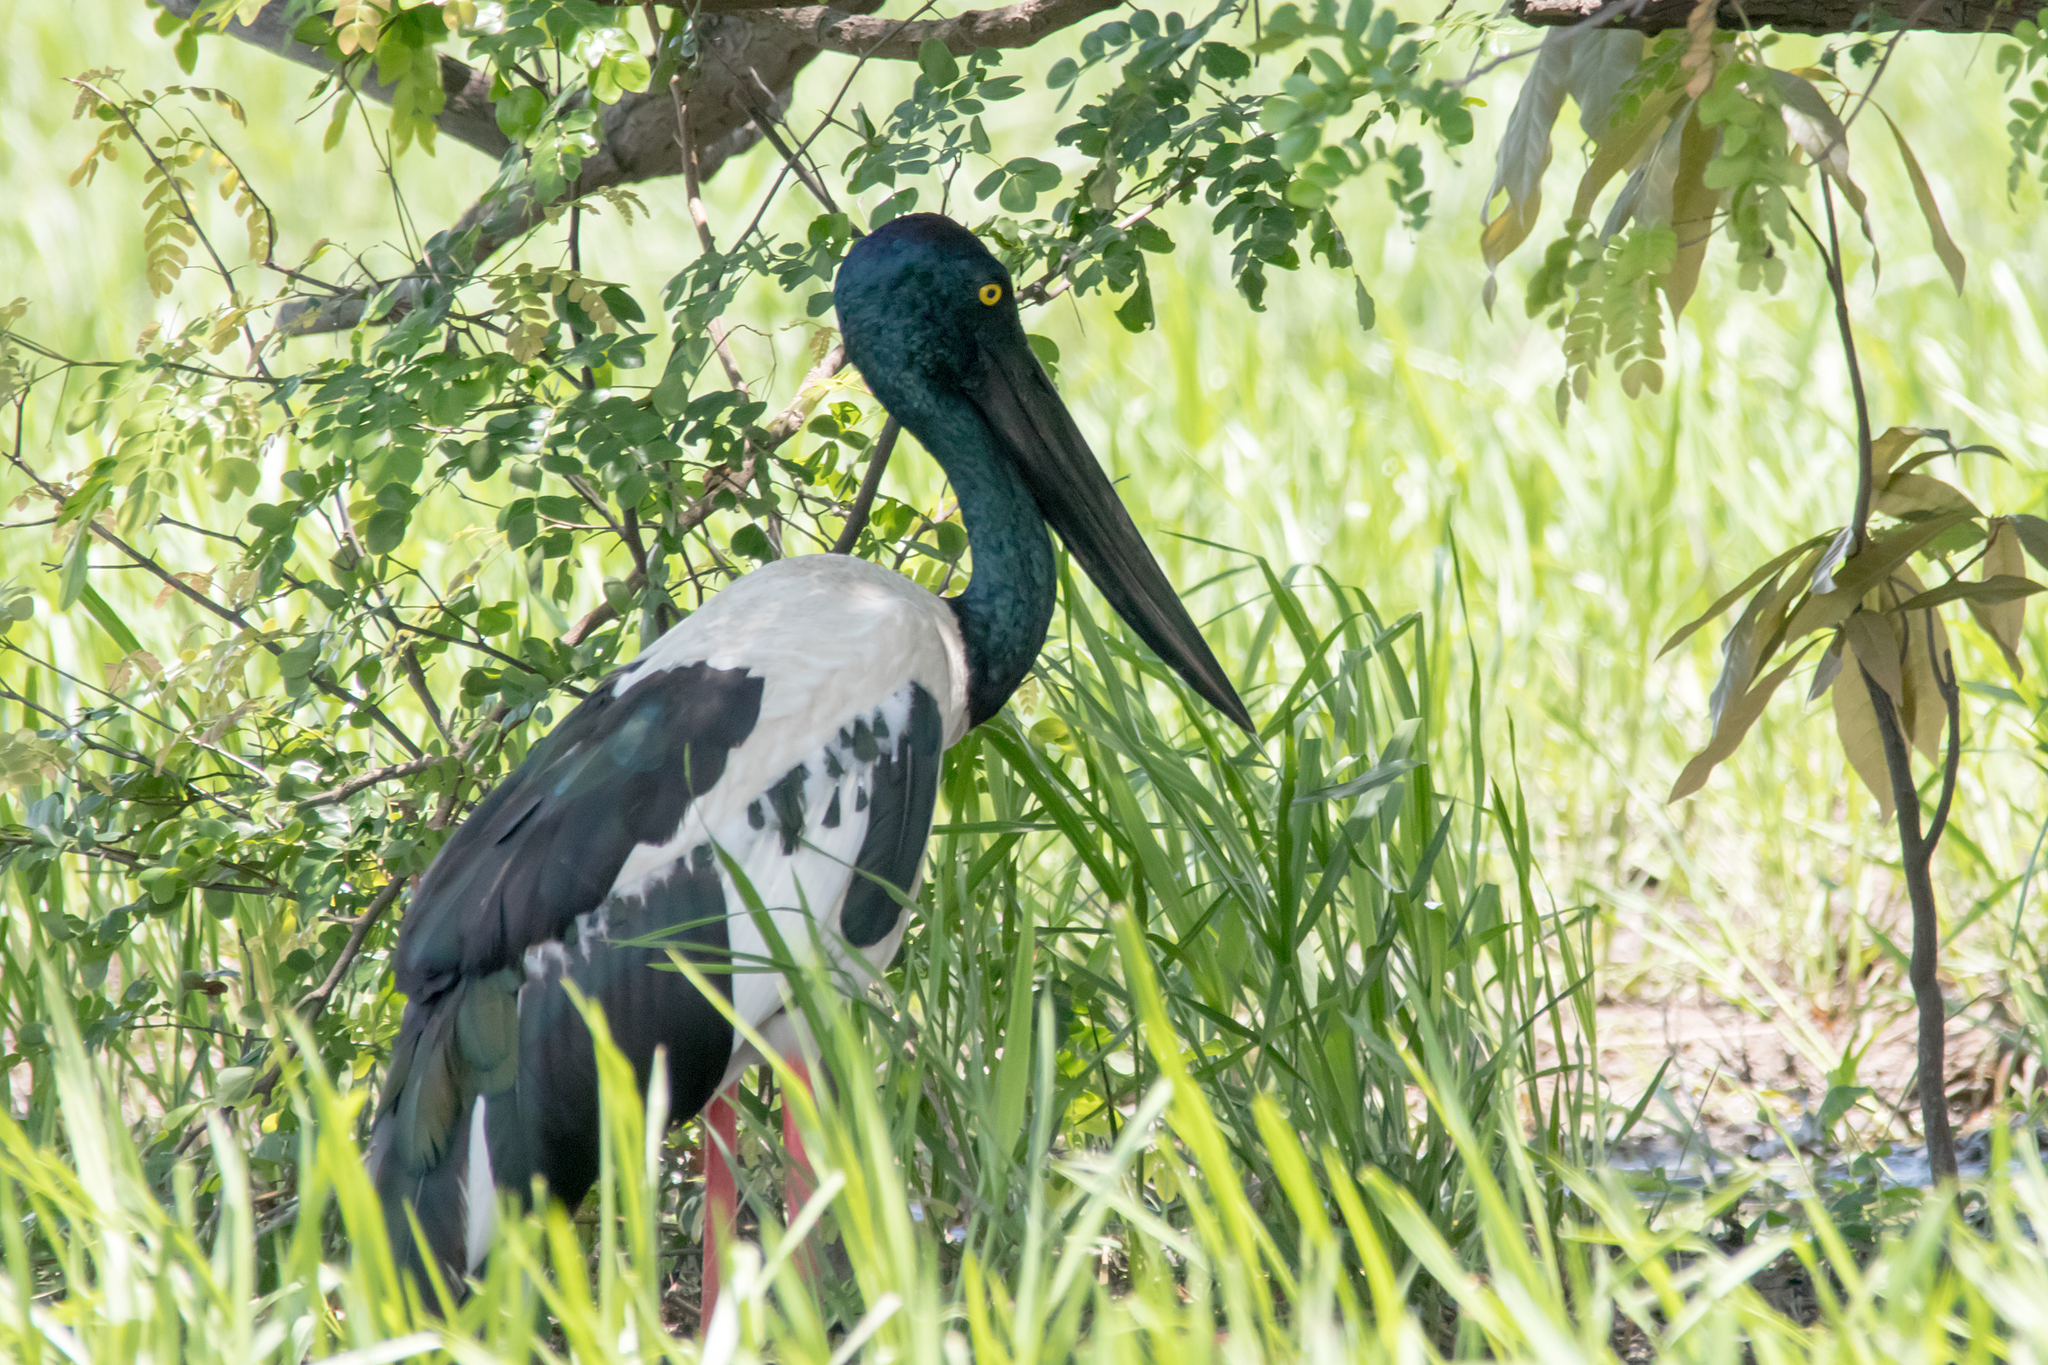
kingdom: Animalia
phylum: Chordata
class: Aves
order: Ciconiiformes
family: Ciconiidae
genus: Ephippiorhynchus
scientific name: Ephippiorhynchus asiaticus
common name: Black-necked stork
